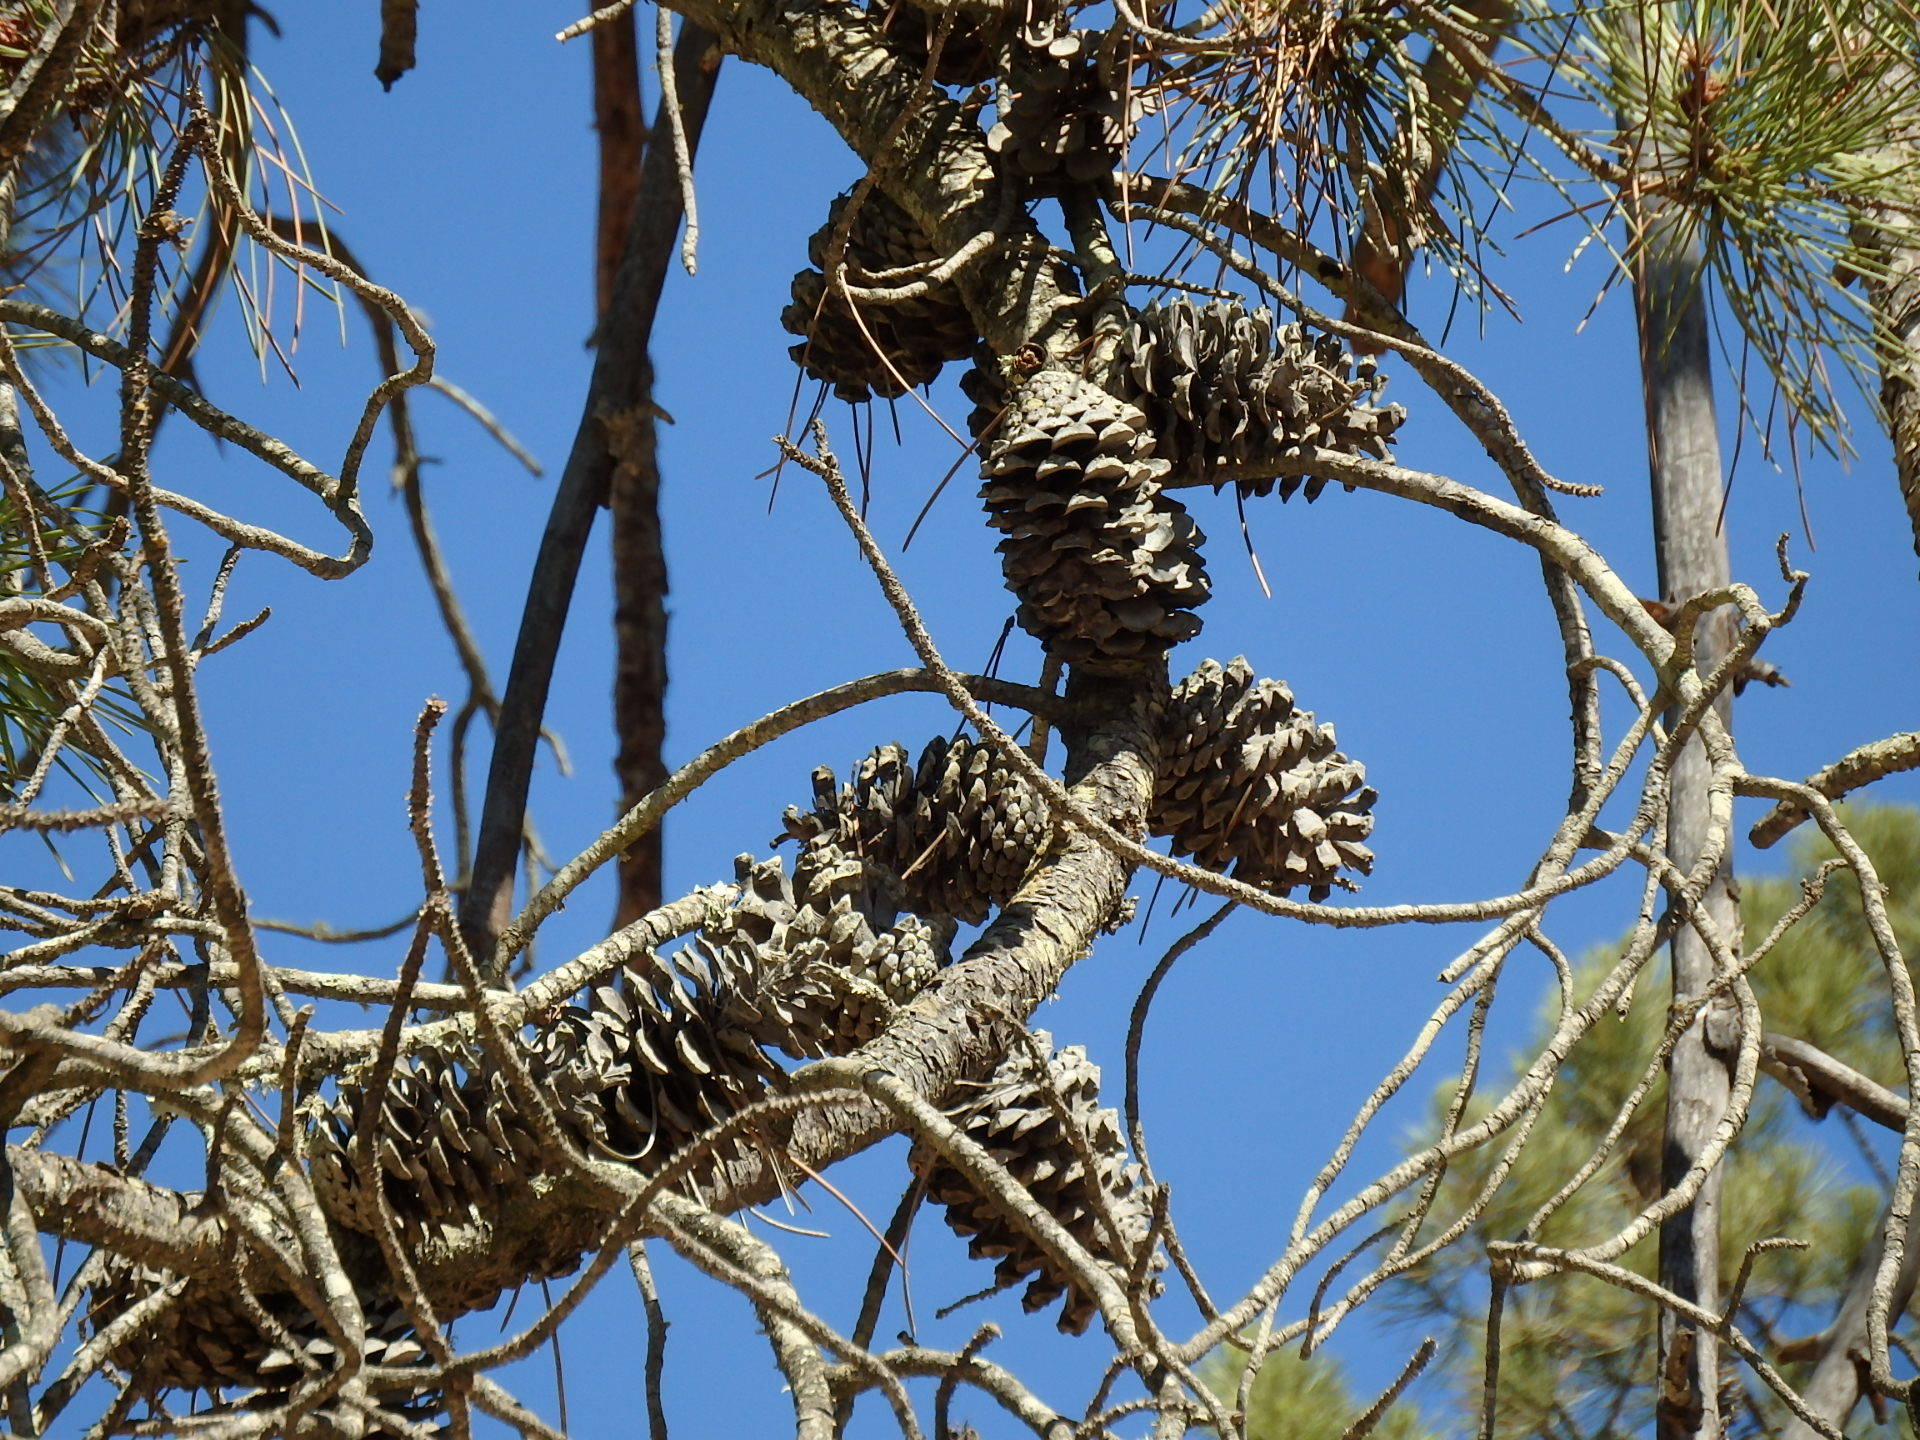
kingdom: Plantae
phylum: Tracheophyta
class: Pinopsida
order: Pinales
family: Pinaceae
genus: Pinus
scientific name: Pinus pinaster
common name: Maritime pine
